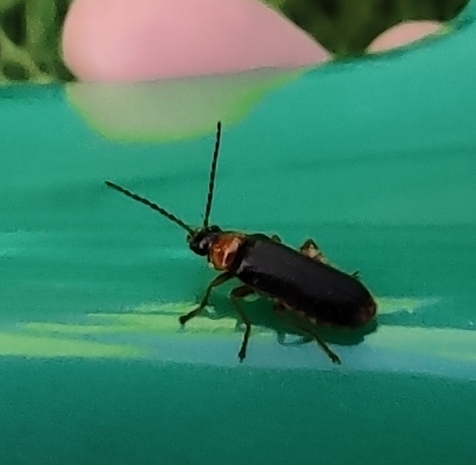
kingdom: Animalia
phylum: Arthropoda
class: Insecta
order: Coleoptera
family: Cantharidae
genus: Cantharis
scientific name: Cantharis flavilabris
